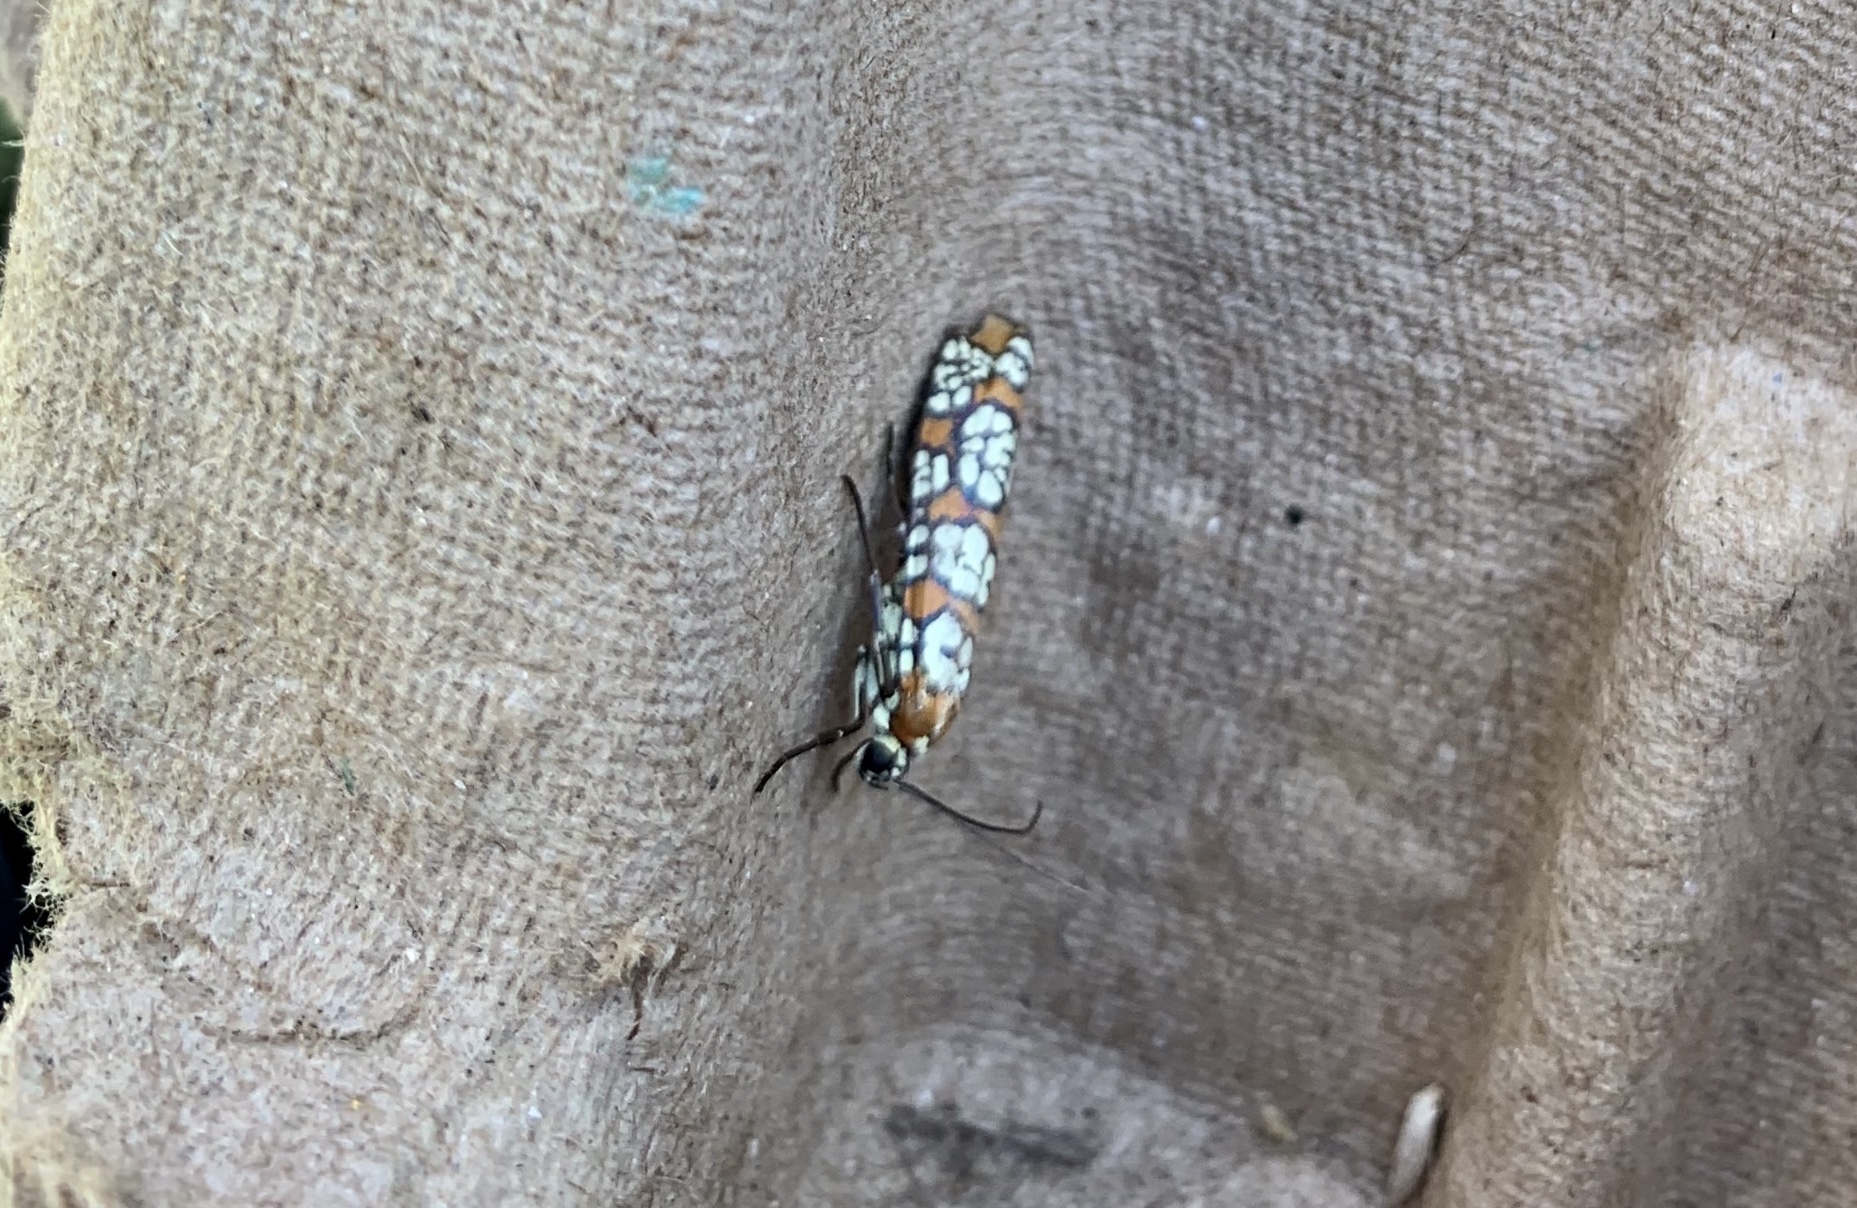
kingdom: Animalia
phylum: Arthropoda
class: Insecta
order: Lepidoptera
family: Attevidae
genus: Atteva
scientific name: Atteva punctella
